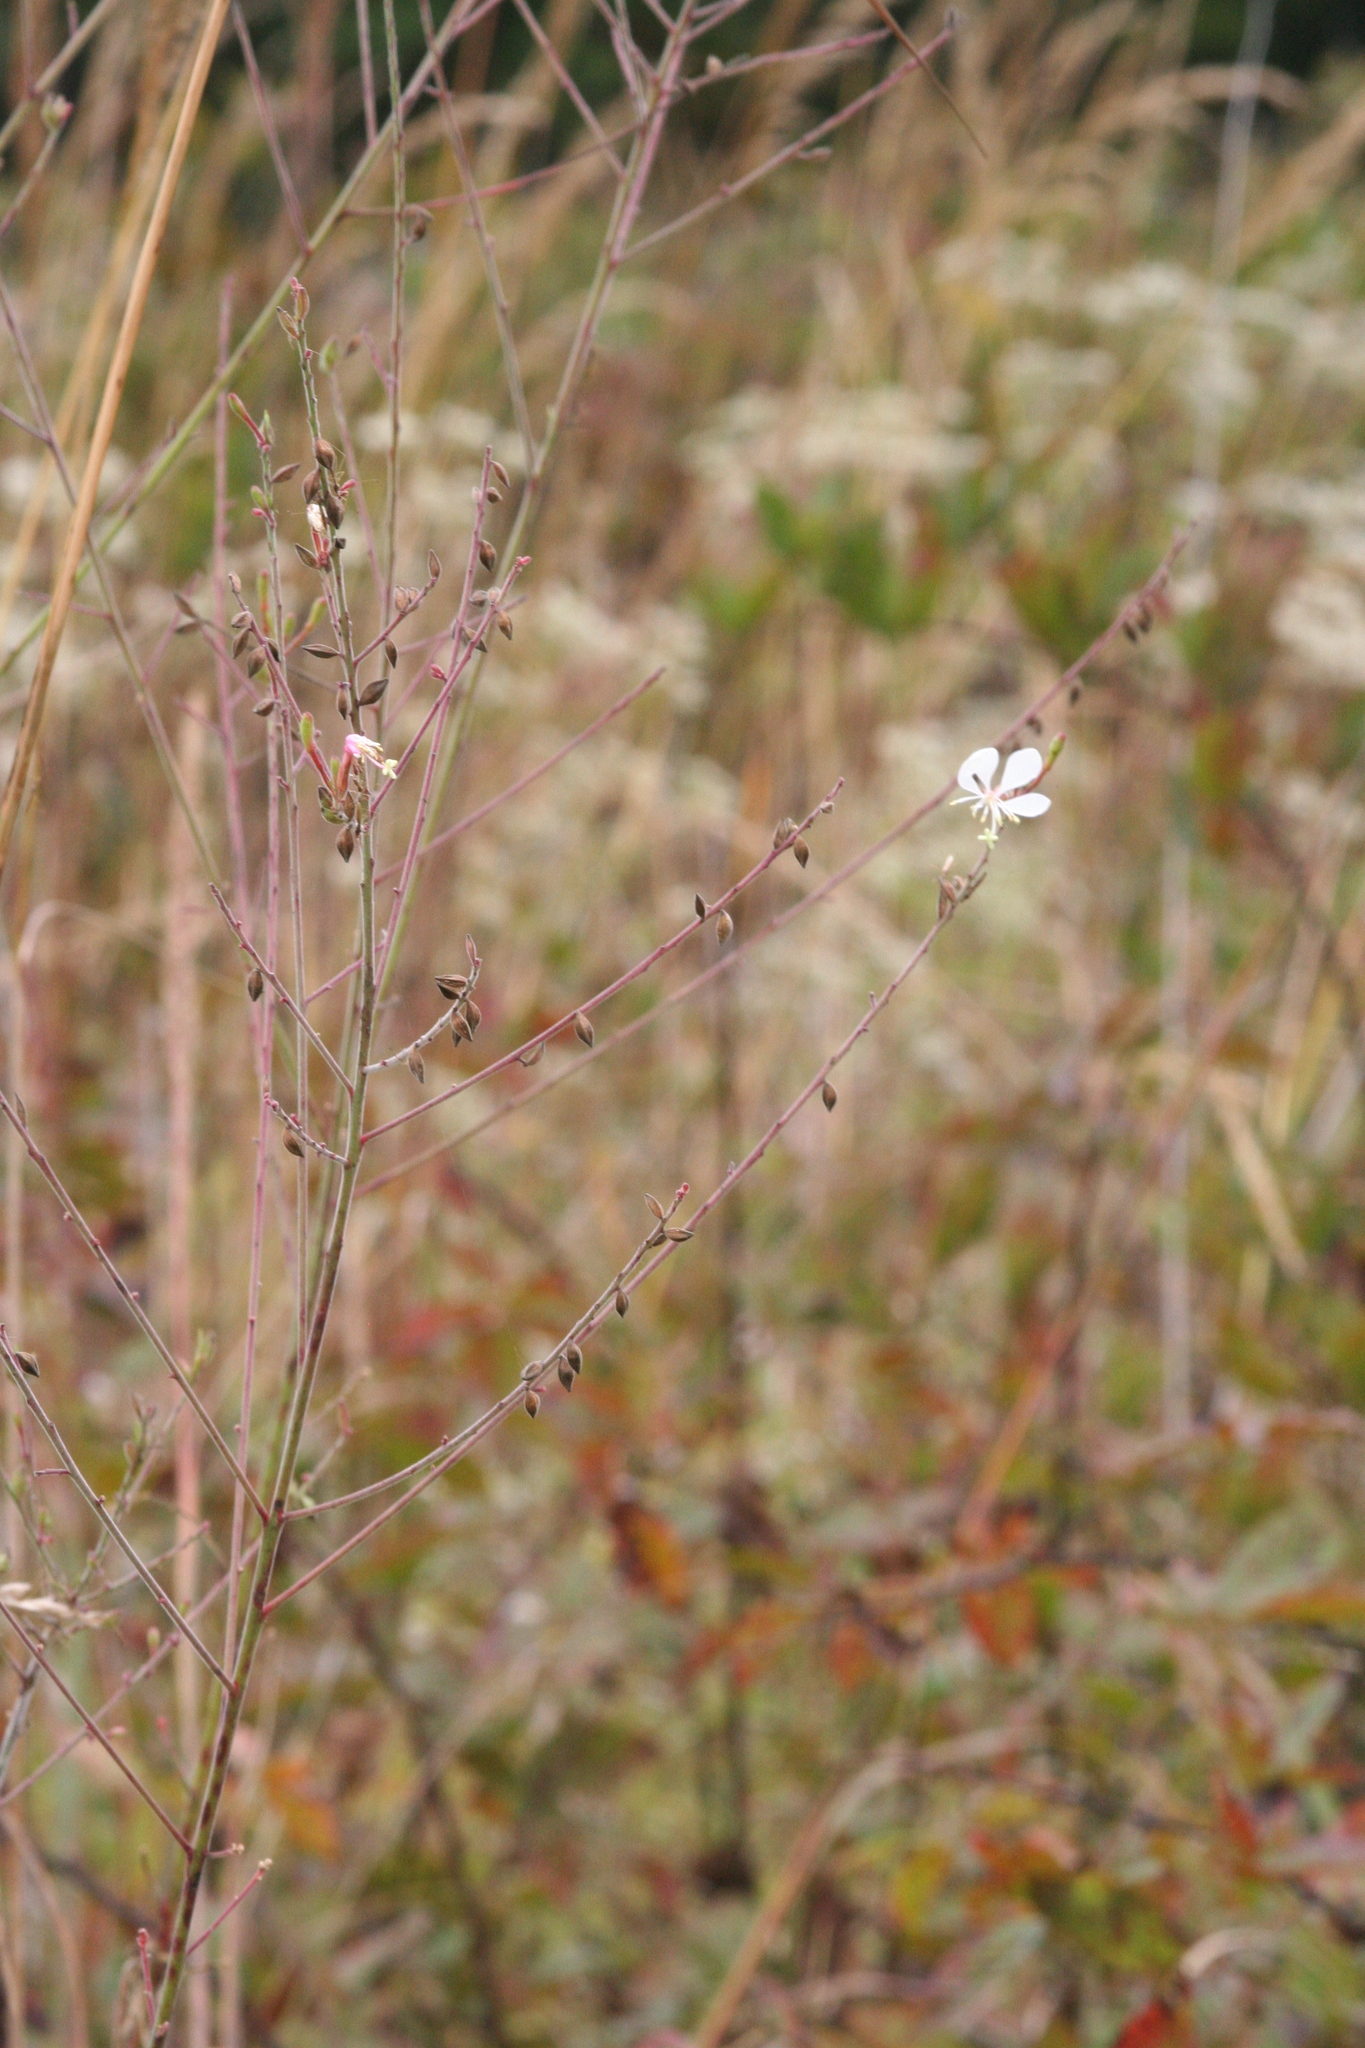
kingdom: Plantae
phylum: Tracheophyta
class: Magnoliopsida
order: Myrtales
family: Onagraceae
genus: Oenothera
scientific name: Oenothera gaura
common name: Biennial beeblossom
